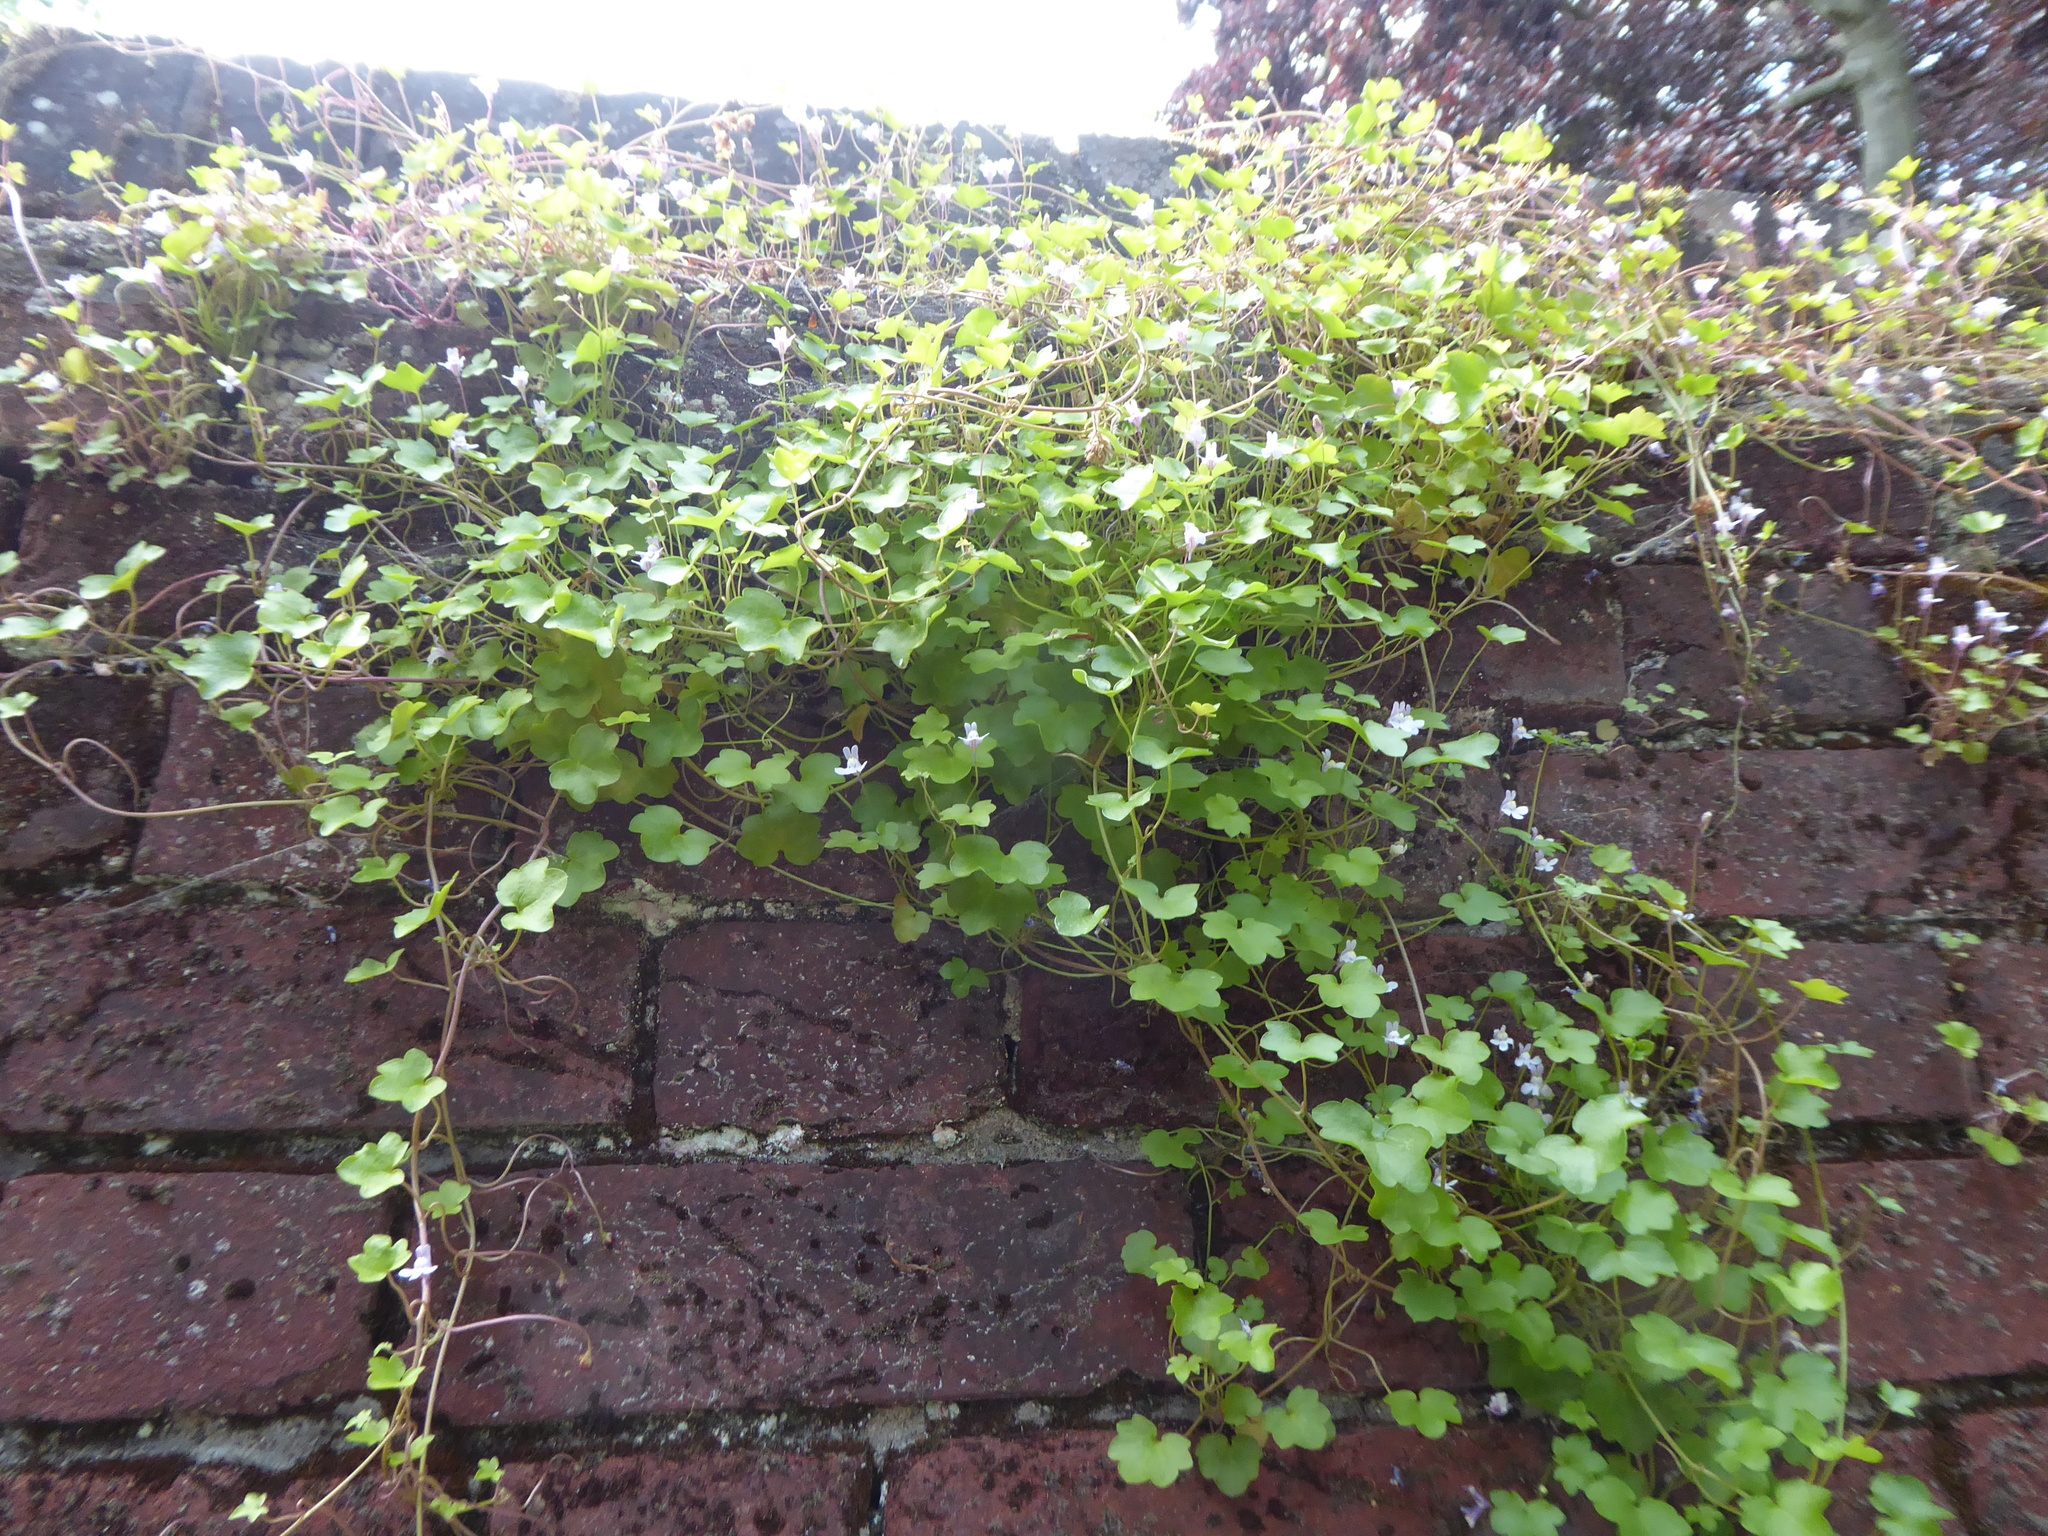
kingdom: Plantae
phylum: Tracheophyta
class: Magnoliopsida
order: Lamiales
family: Plantaginaceae
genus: Cymbalaria
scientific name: Cymbalaria muralis
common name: Ivy-leaved toadflax
